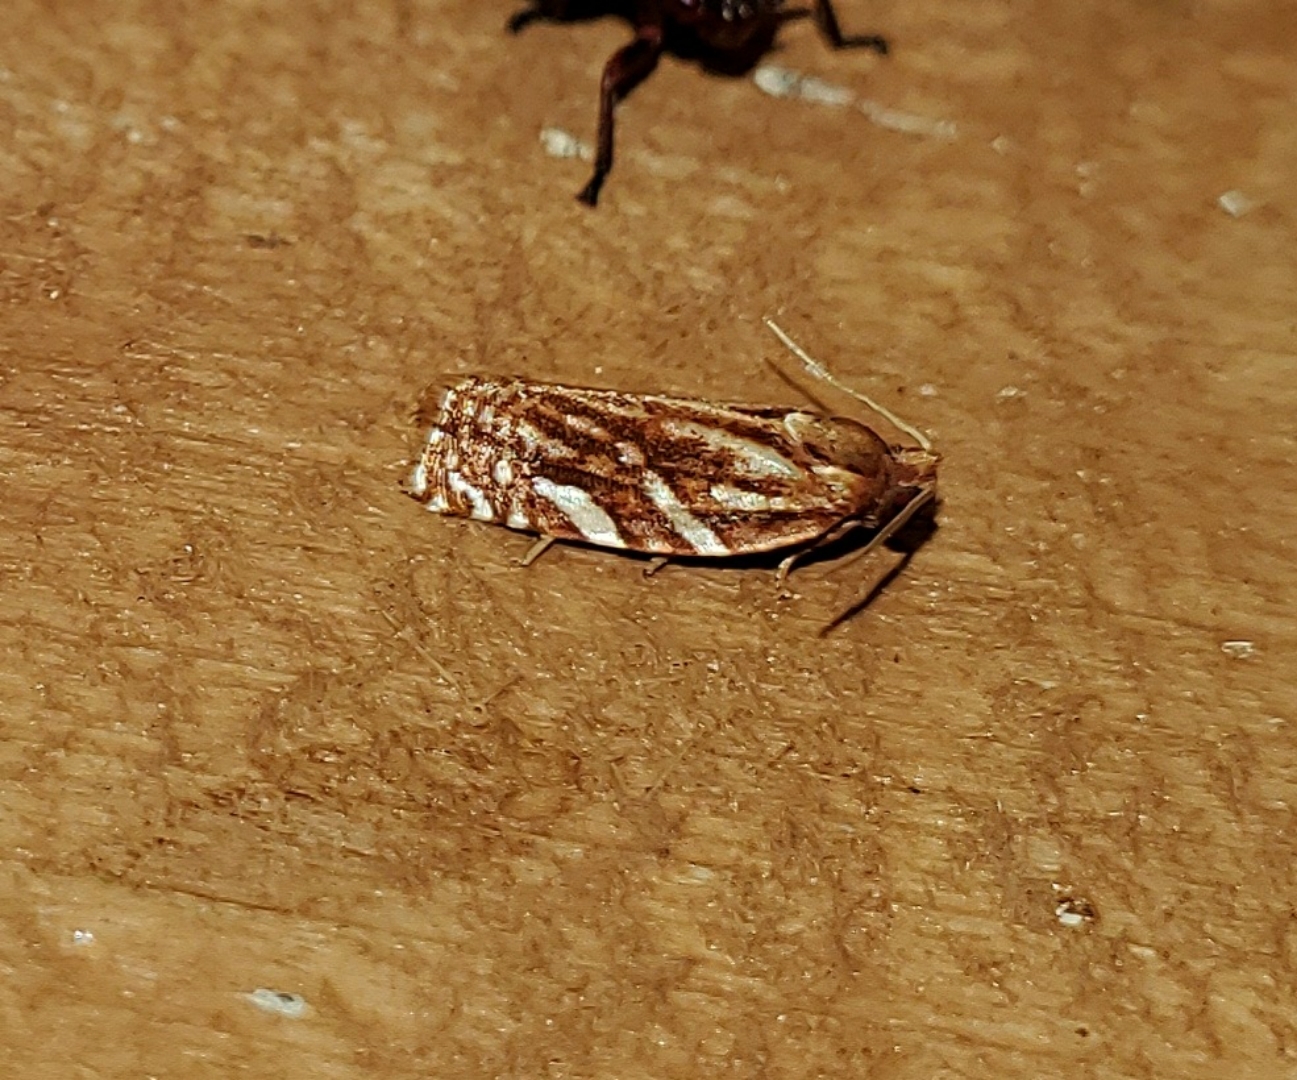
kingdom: Animalia
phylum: Arthropoda
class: Insecta
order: Lepidoptera
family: Tortricidae
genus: Choristoneura
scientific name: Choristoneura argentifasciata
